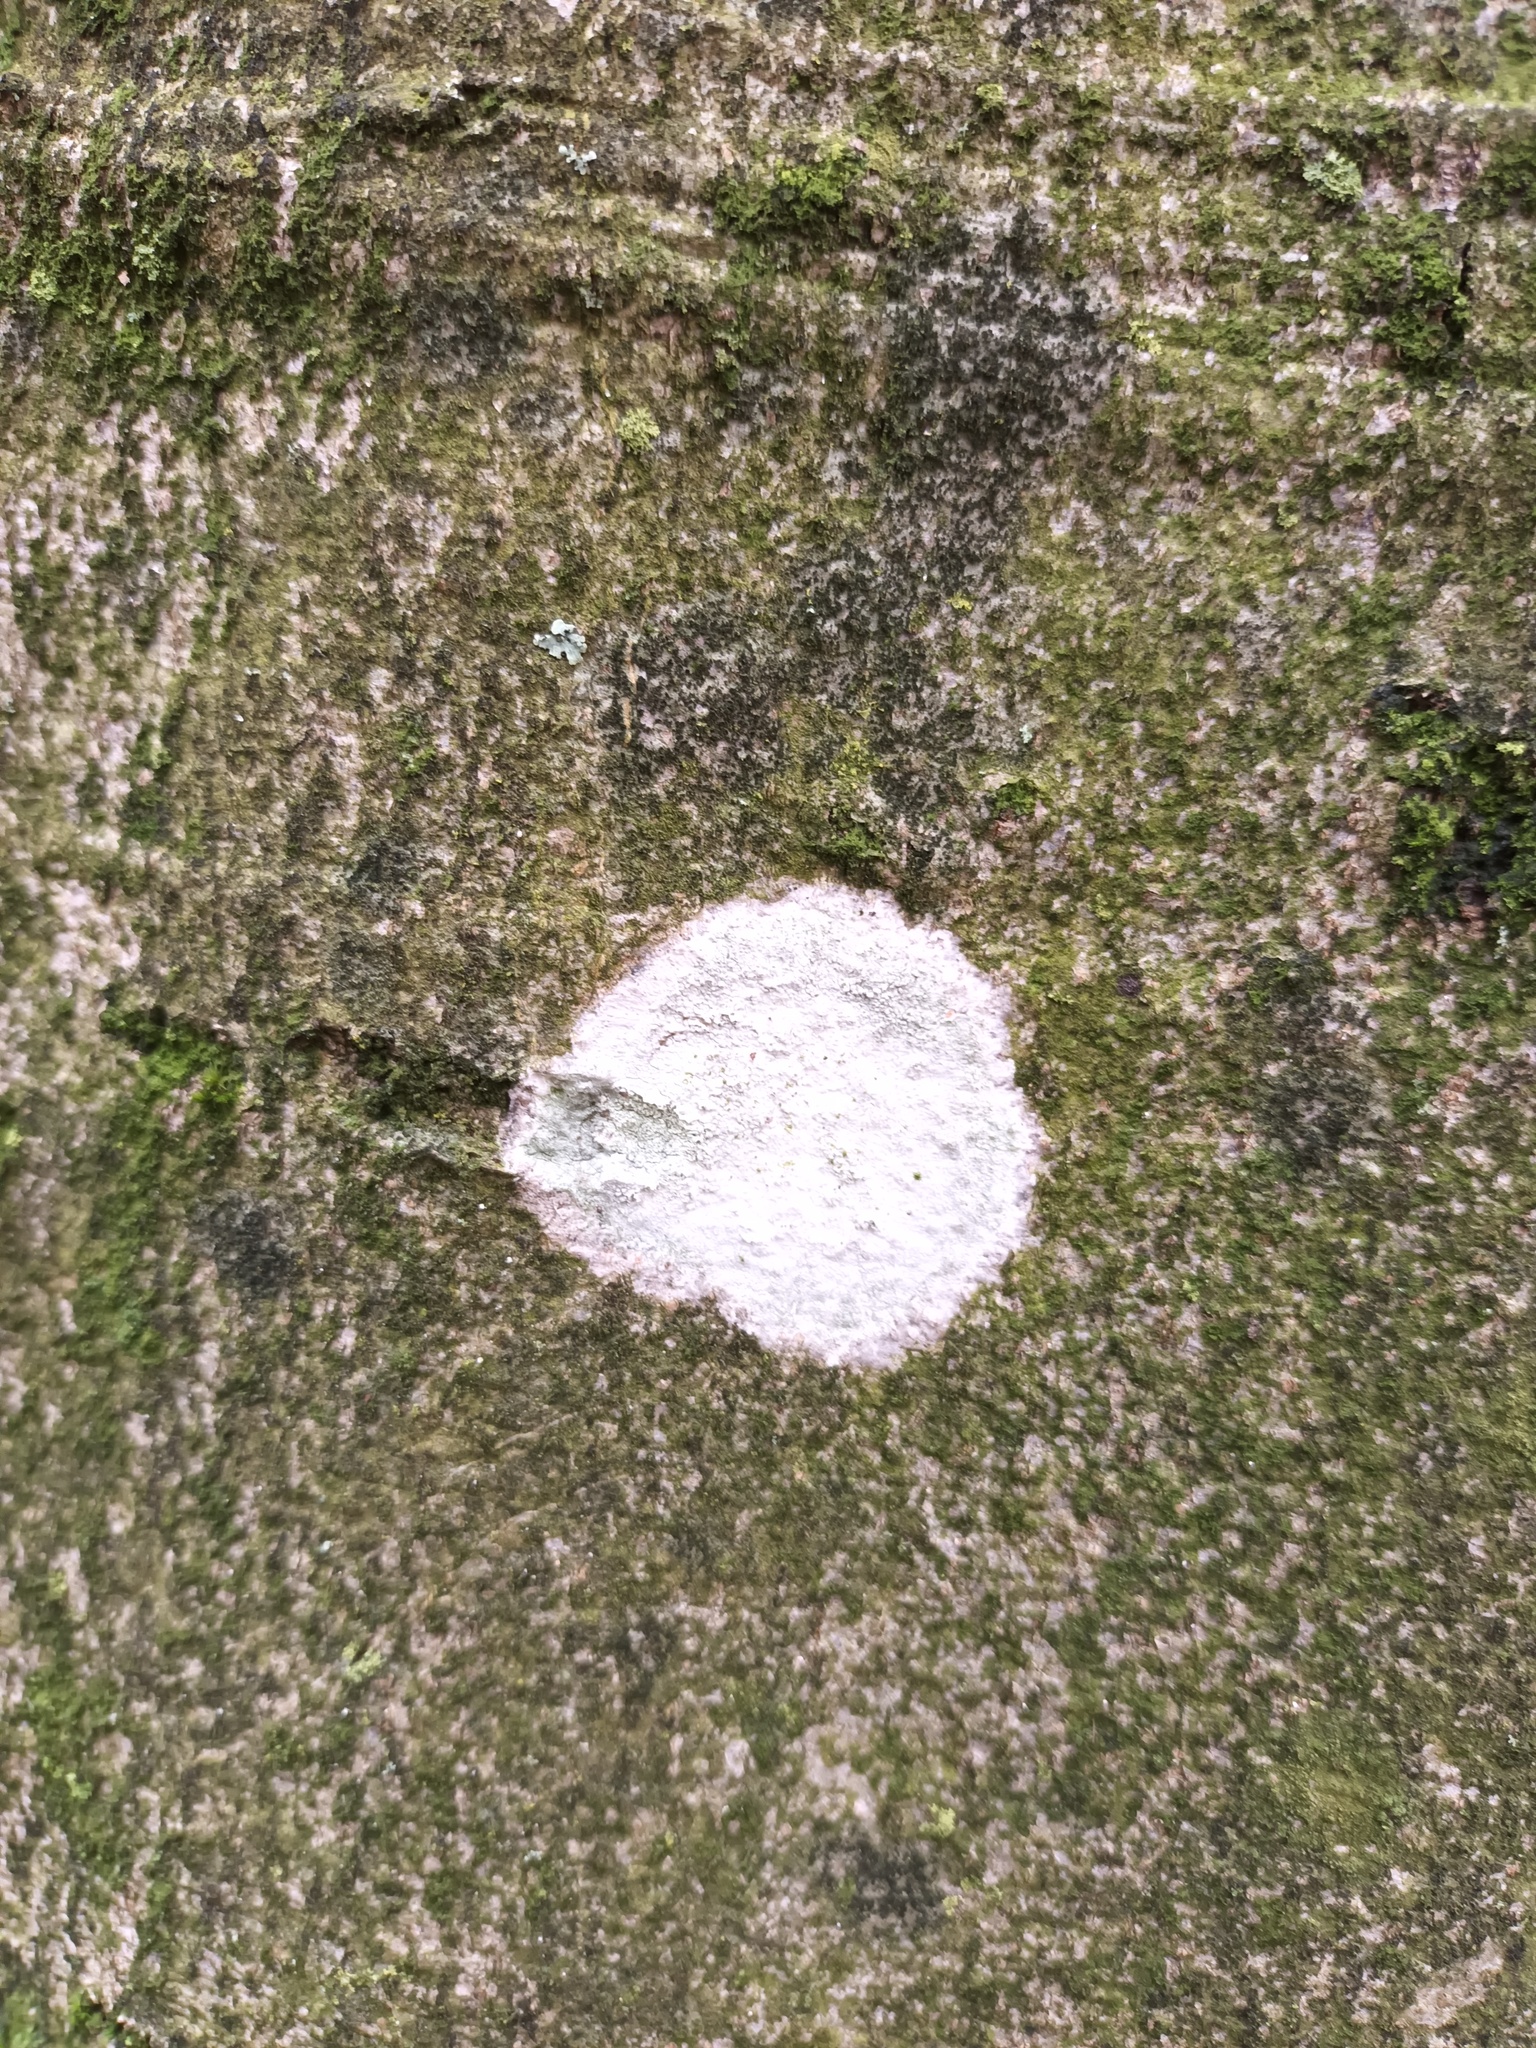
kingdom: Fungi
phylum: Ascomycota
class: Lecanoromycetes
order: Ostropales
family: Phlyctidaceae
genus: Phlyctis
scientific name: Phlyctis argena
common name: Whitewash lichen
